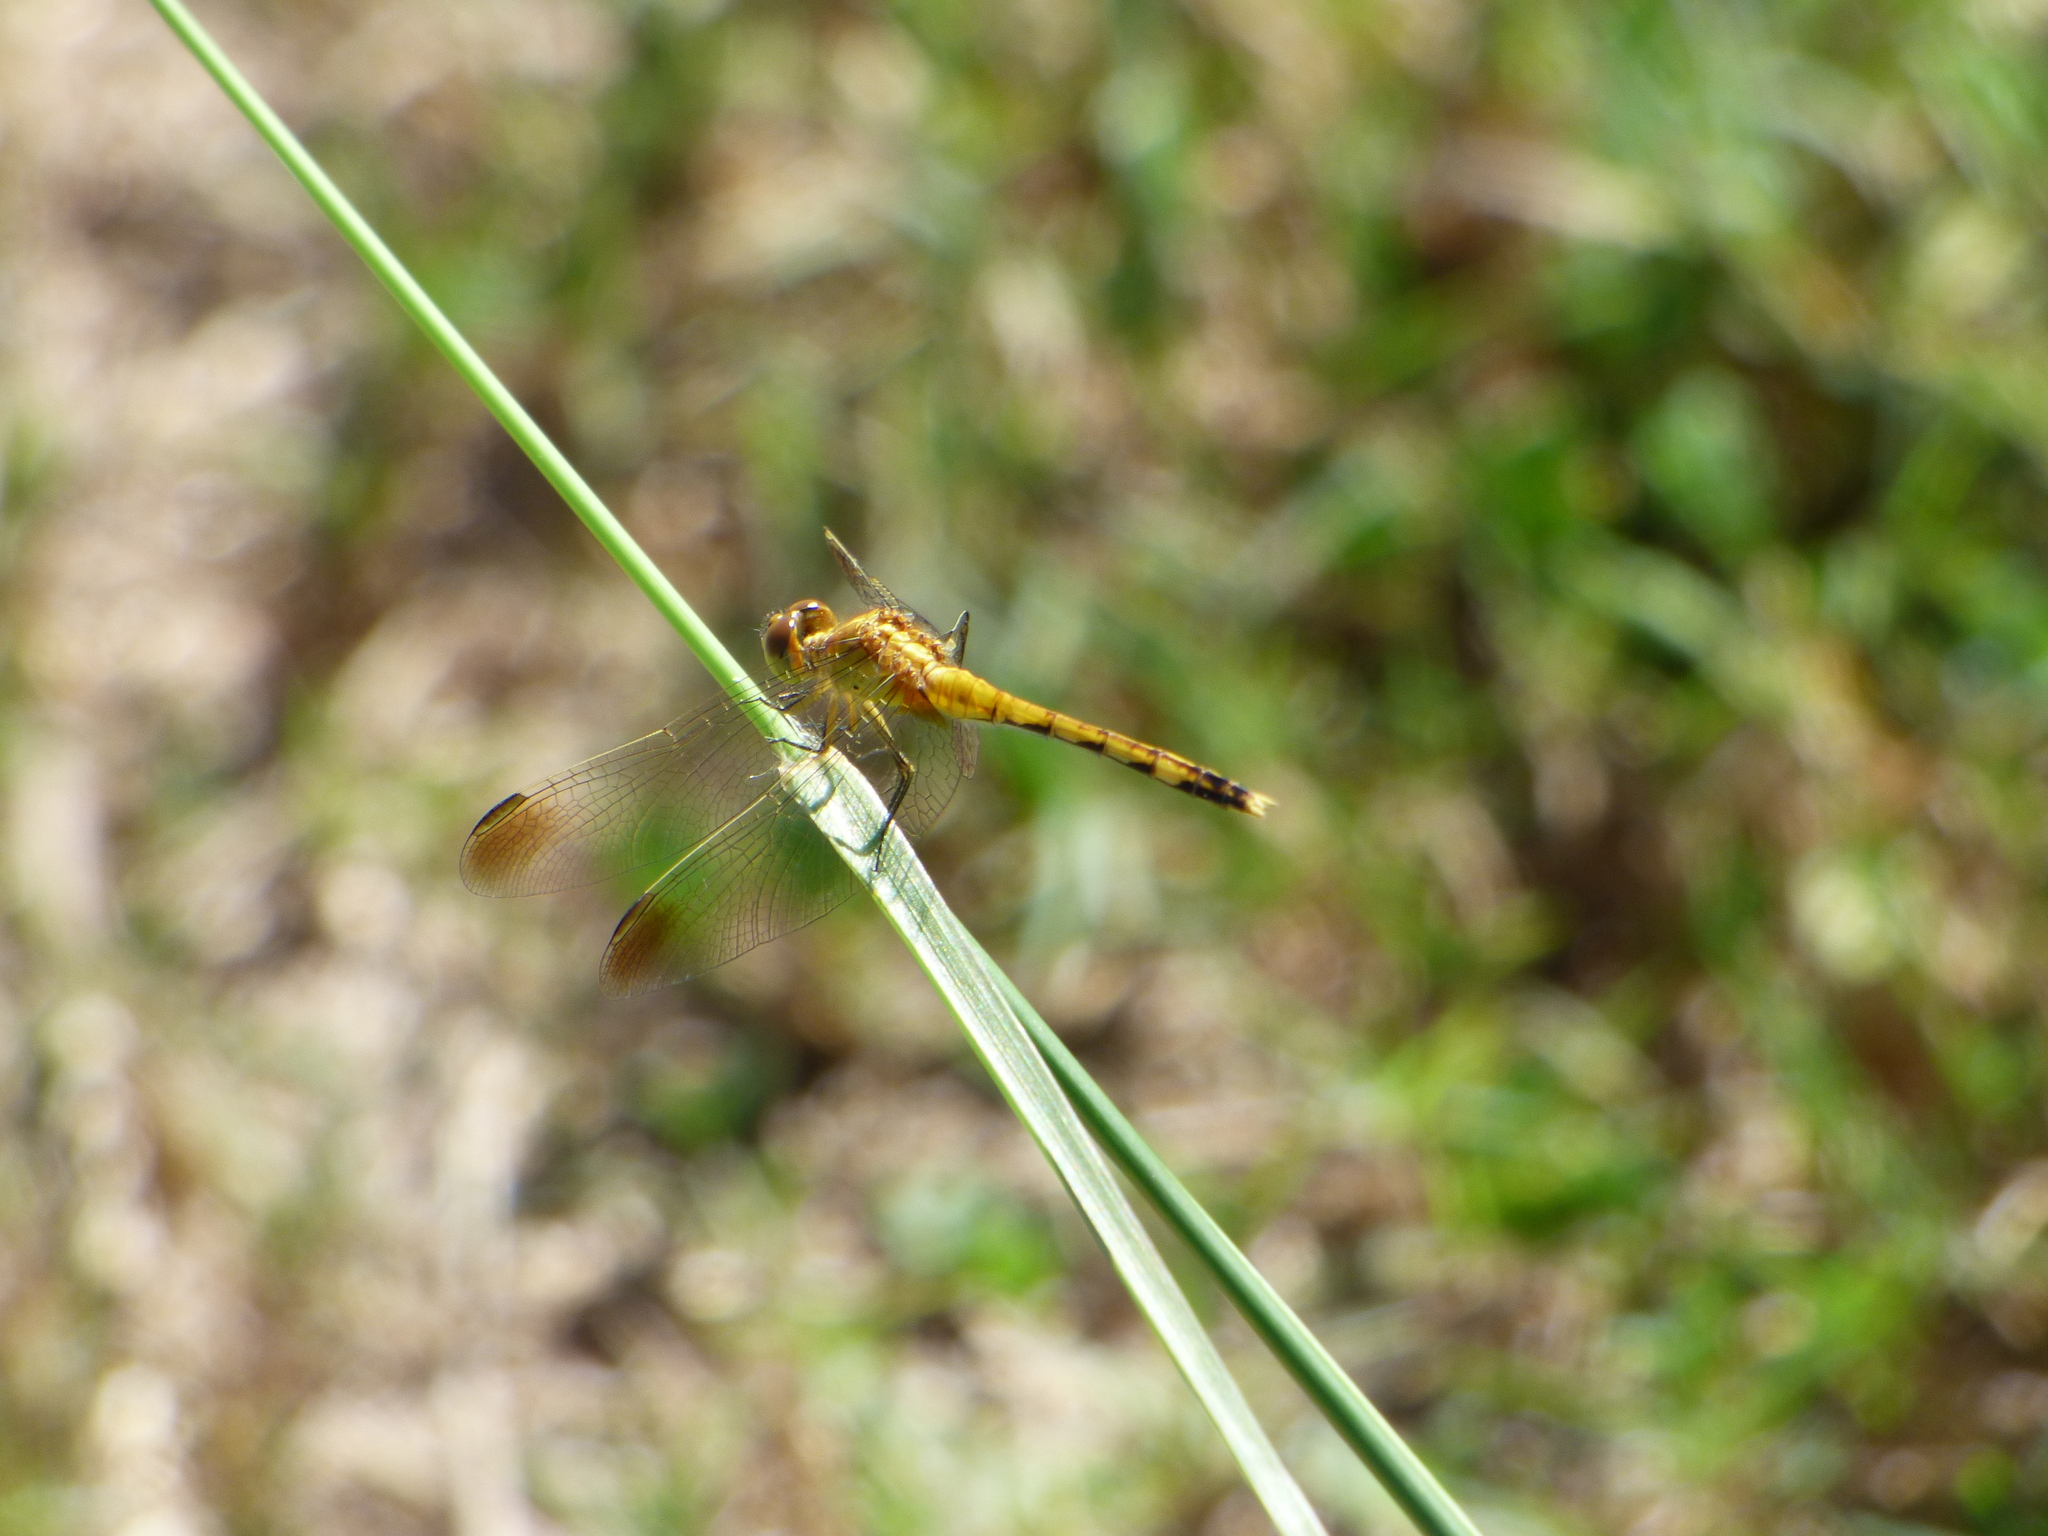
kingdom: Animalia
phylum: Arthropoda
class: Insecta
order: Odonata
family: Libellulidae
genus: Erythrodiplax
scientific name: Erythrodiplax nigricans
